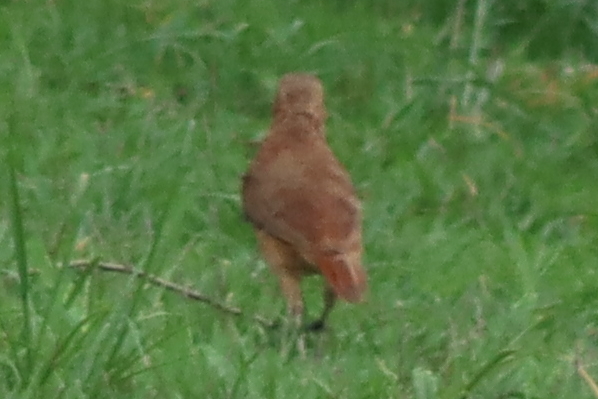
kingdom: Animalia
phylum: Chordata
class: Aves
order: Passeriformes
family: Furnariidae
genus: Furnarius
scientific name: Furnarius rufus
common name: Rufous hornero
